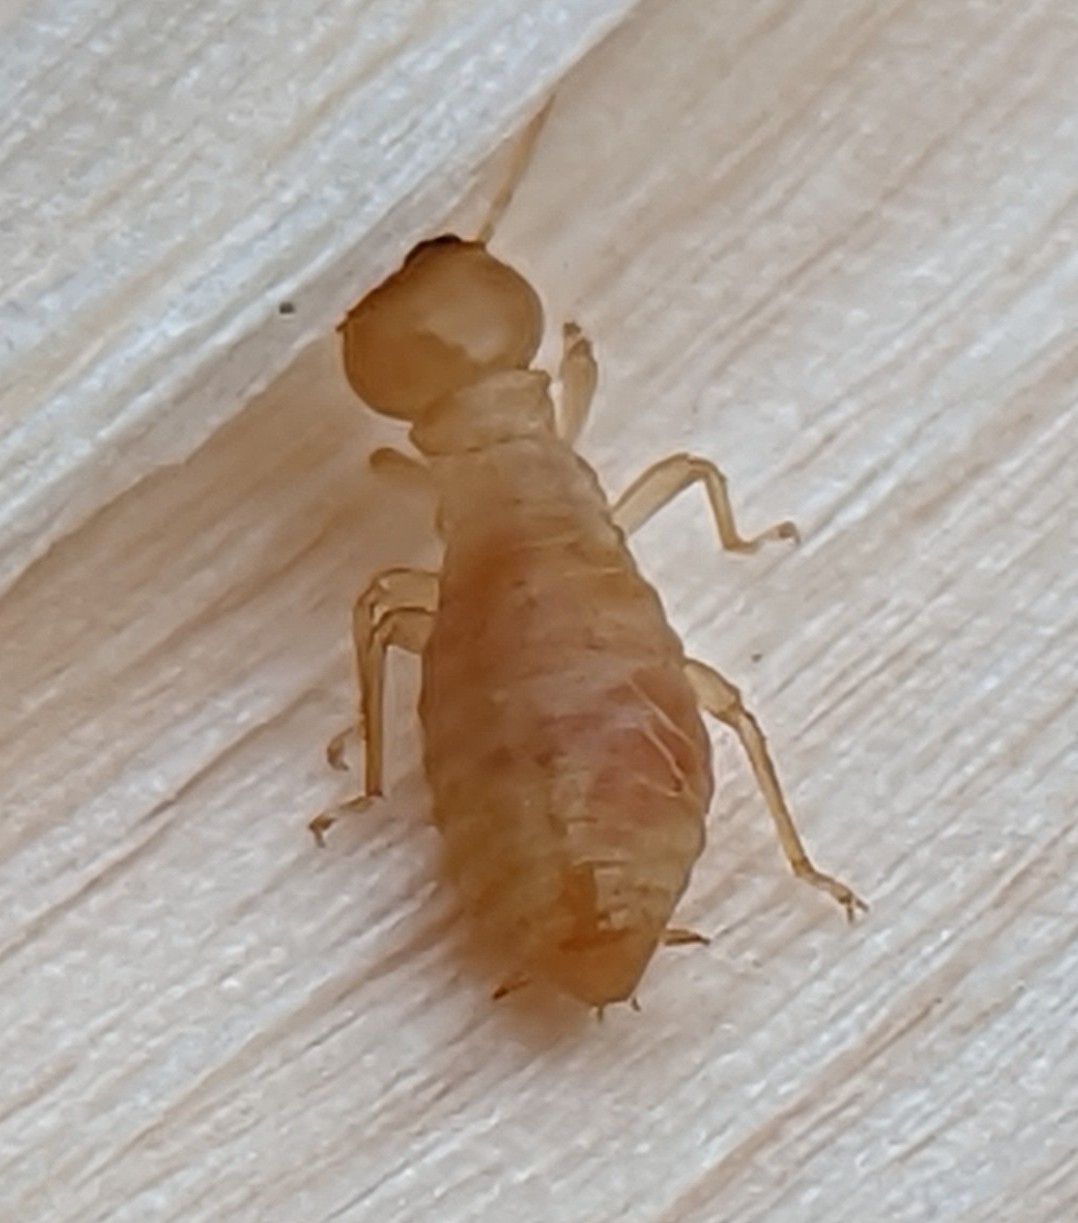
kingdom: Animalia
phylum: Arthropoda
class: Insecta
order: Blattodea
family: Archotermopsidae
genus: Zootermopsis
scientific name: Zootermopsis
